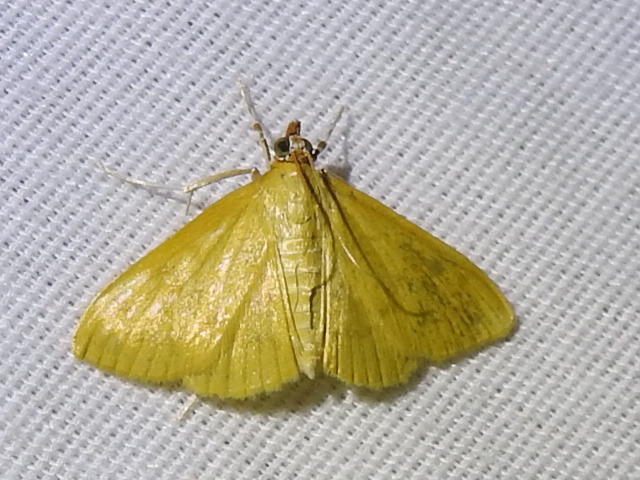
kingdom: Animalia
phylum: Arthropoda
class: Insecta
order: Lepidoptera
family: Crambidae
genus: Helvibotys
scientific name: Helvibotys helvialis
